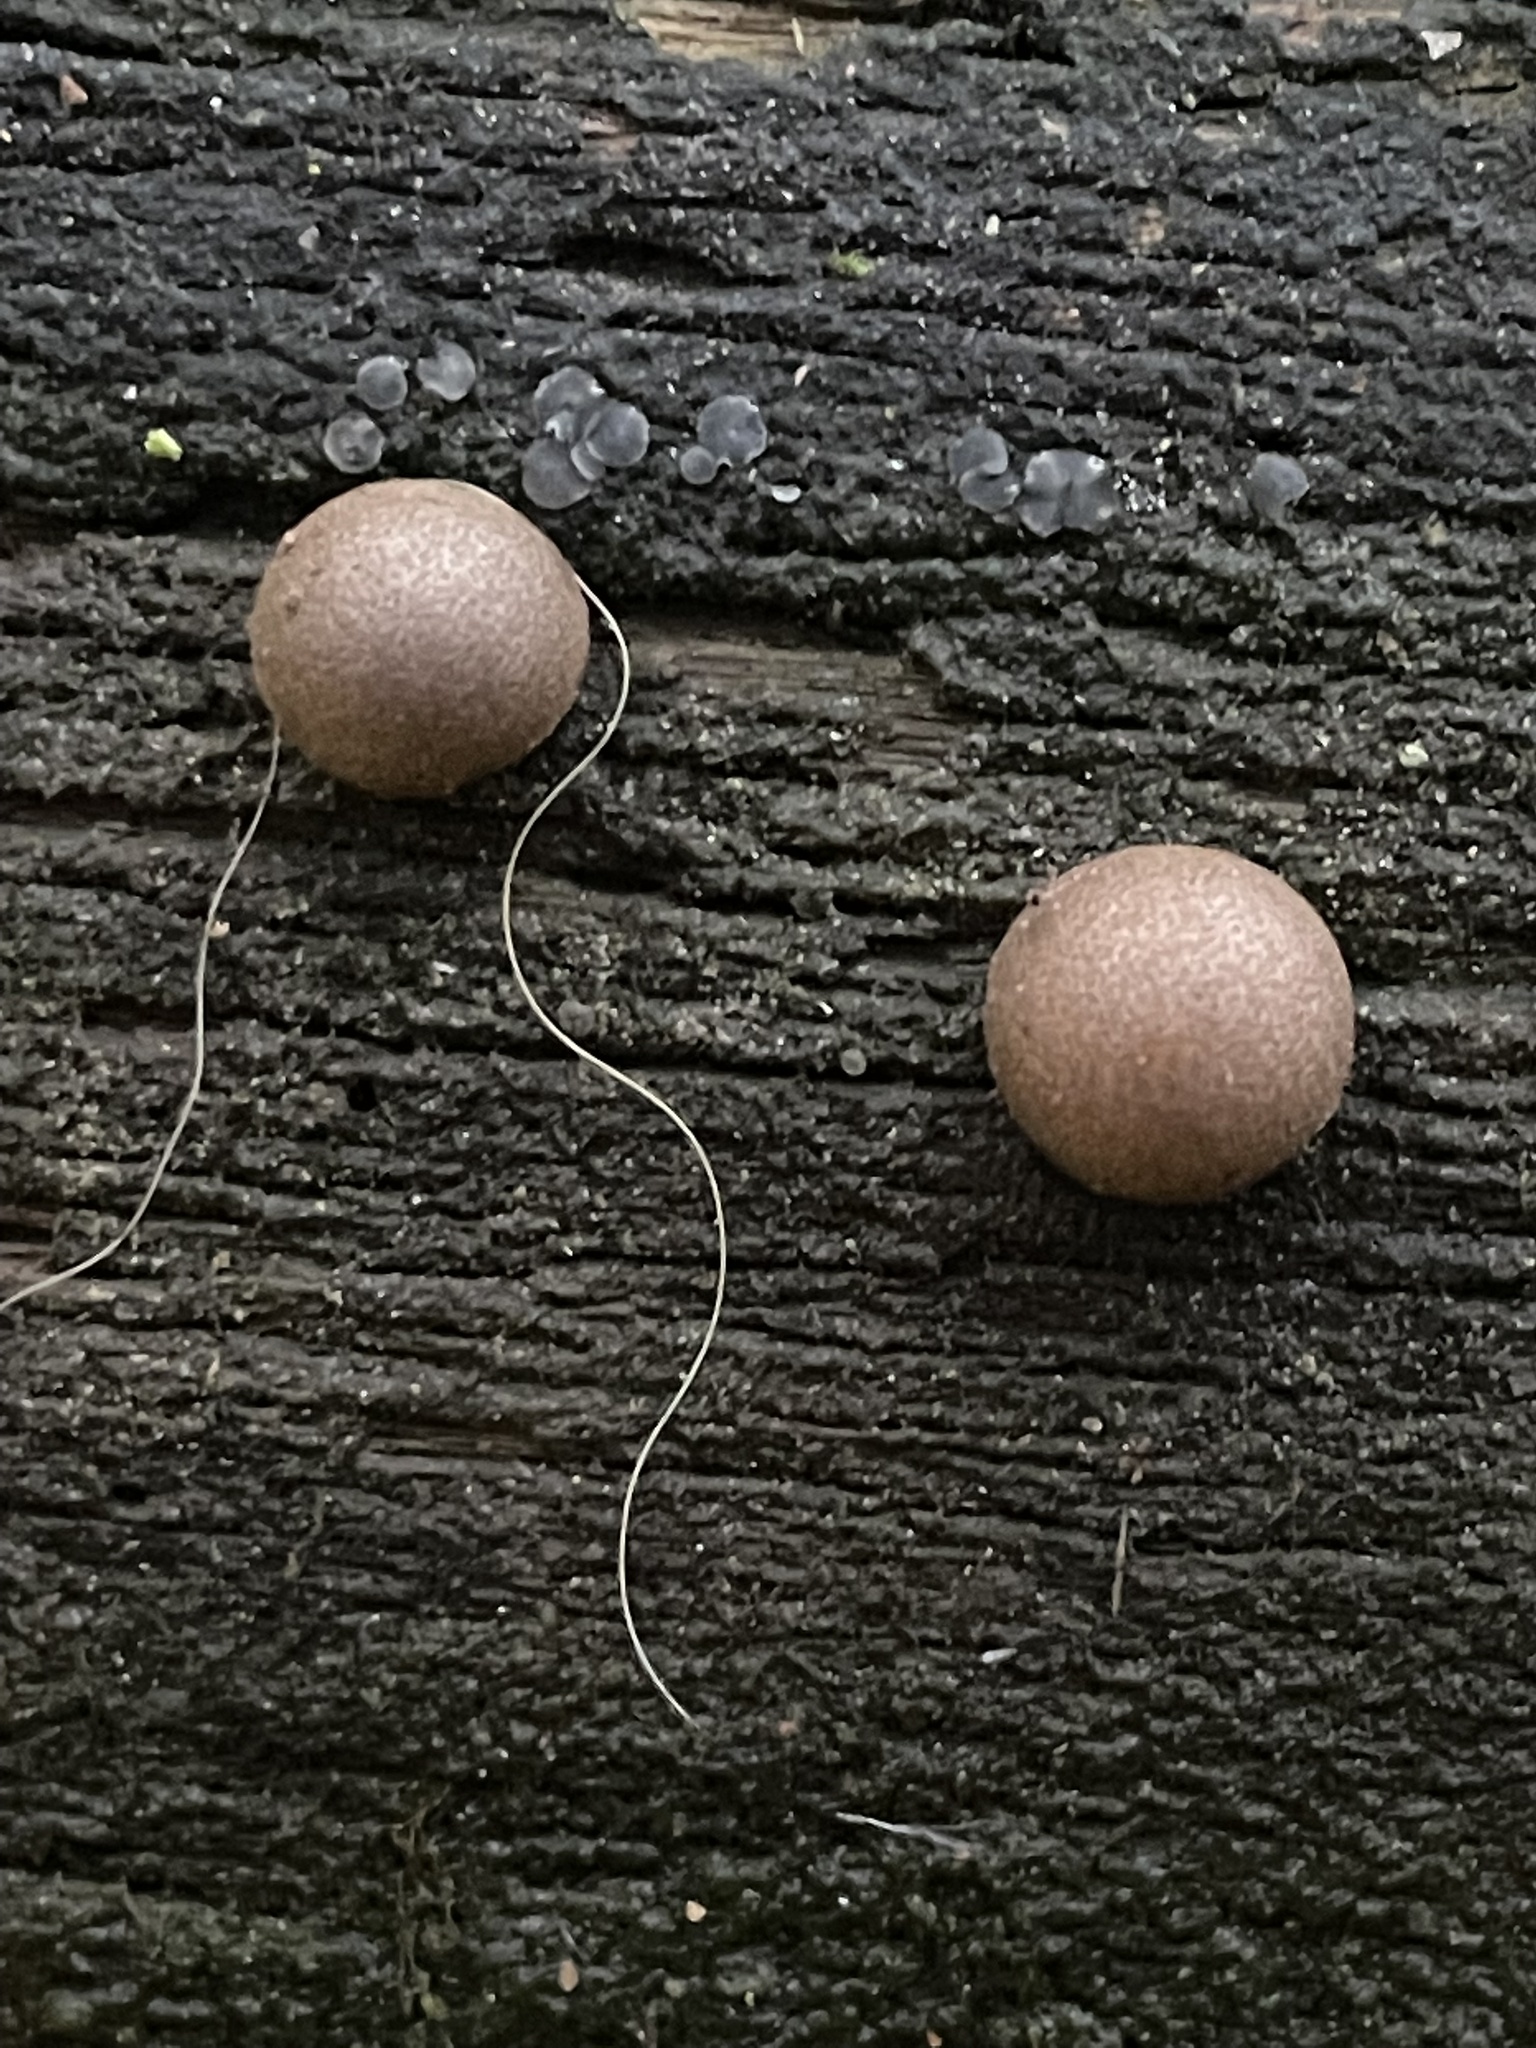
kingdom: Protozoa
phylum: Mycetozoa
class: Myxomycetes
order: Cribrariales
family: Tubiferaceae
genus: Lycogala
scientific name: Lycogala epidendrum
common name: Wolf's milk
